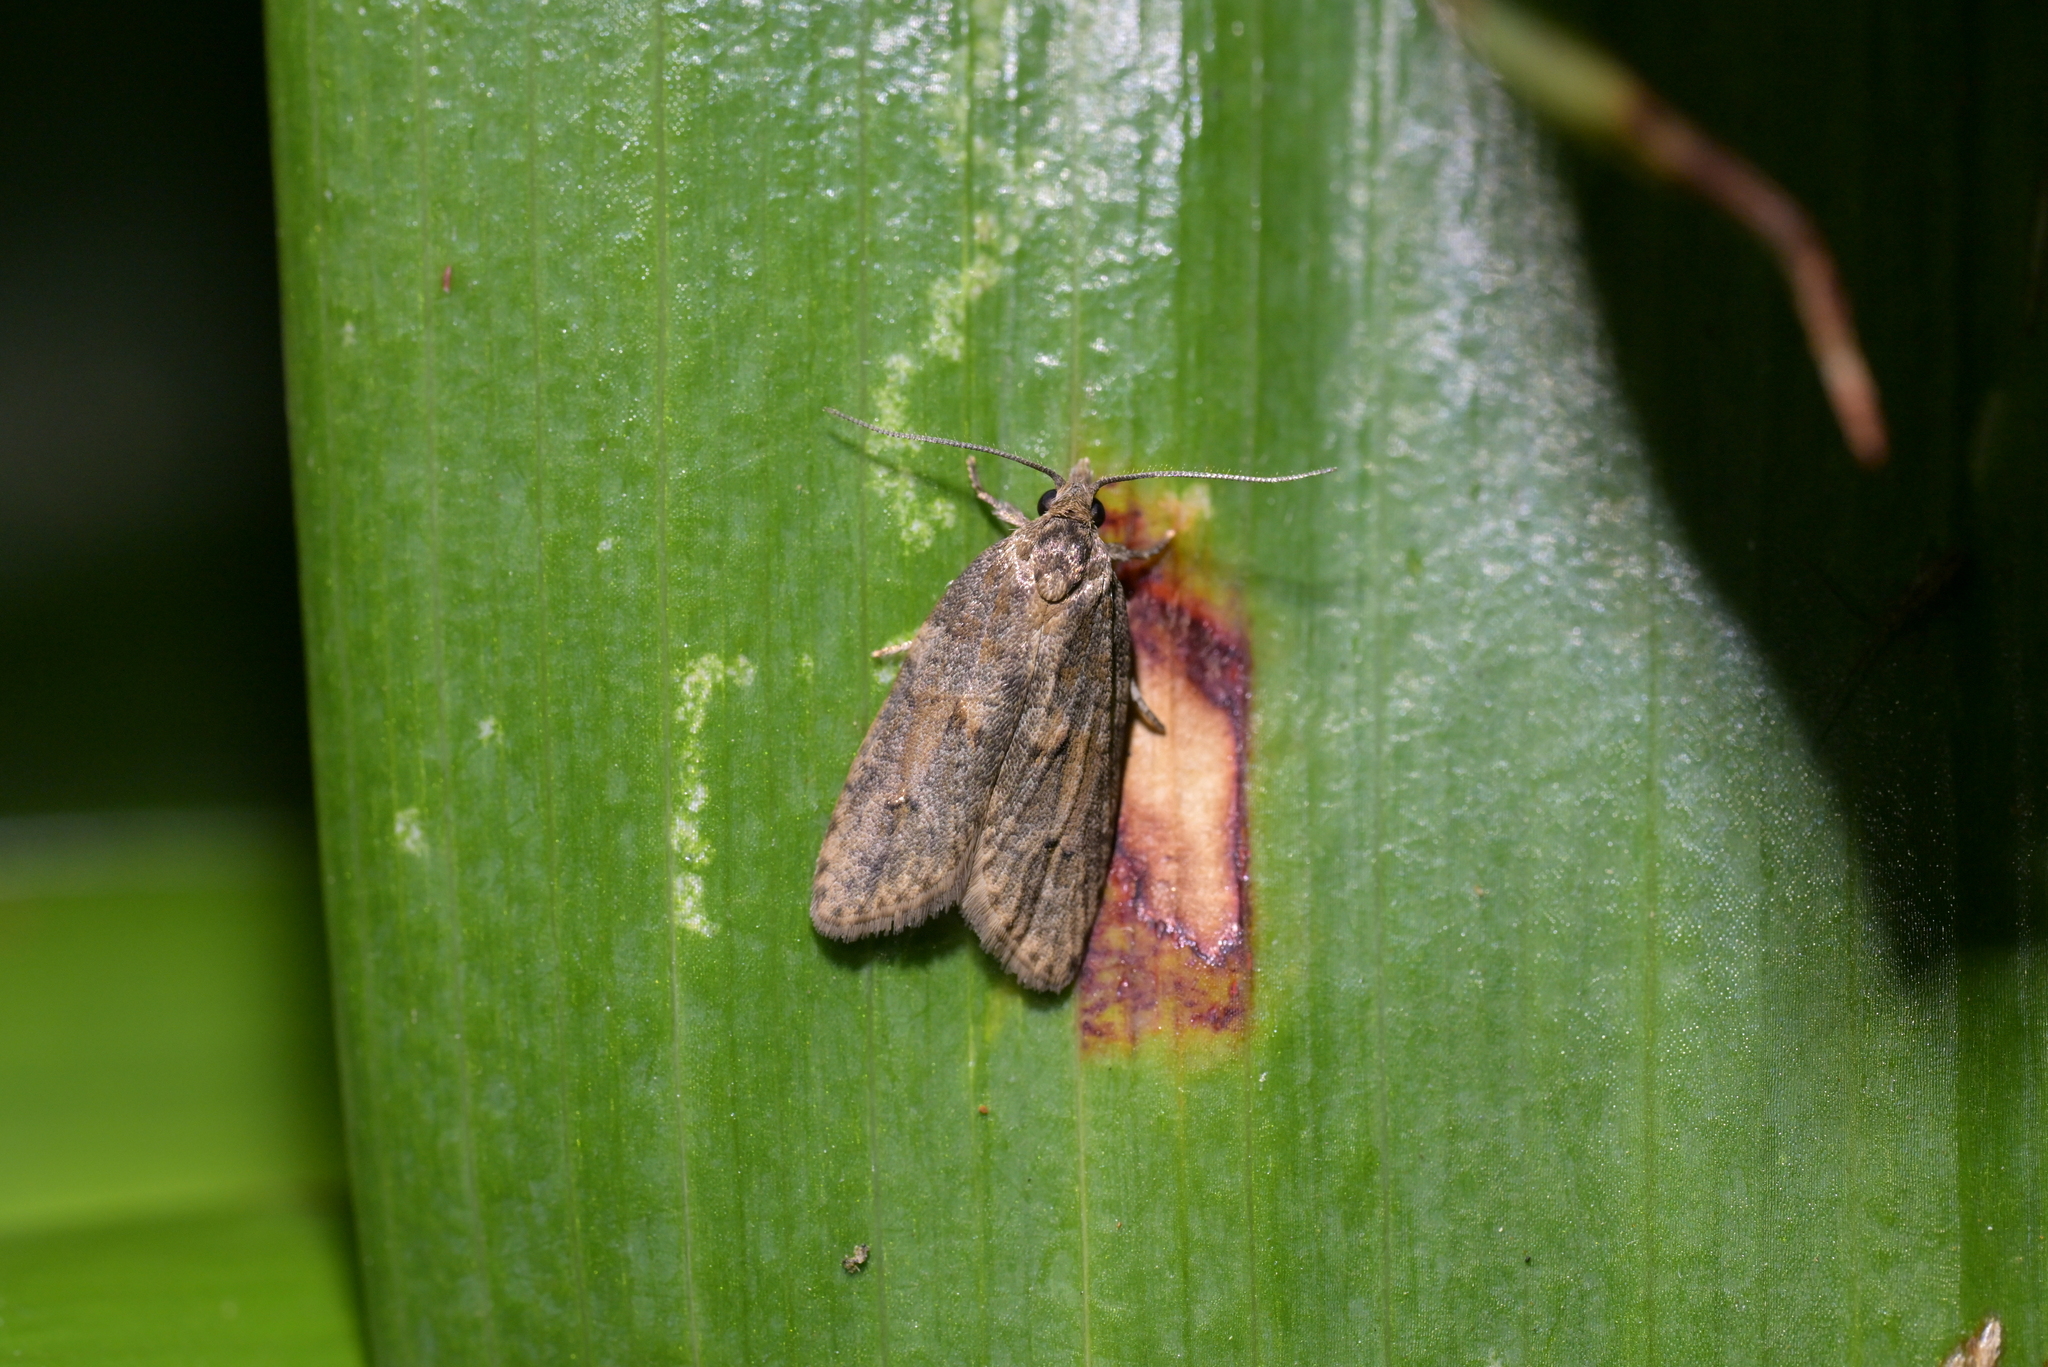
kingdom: Animalia
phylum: Arthropoda
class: Insecta
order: Lepidoptera
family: Tortricidae
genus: Prothelymna
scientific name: Prothelymna antiquana
